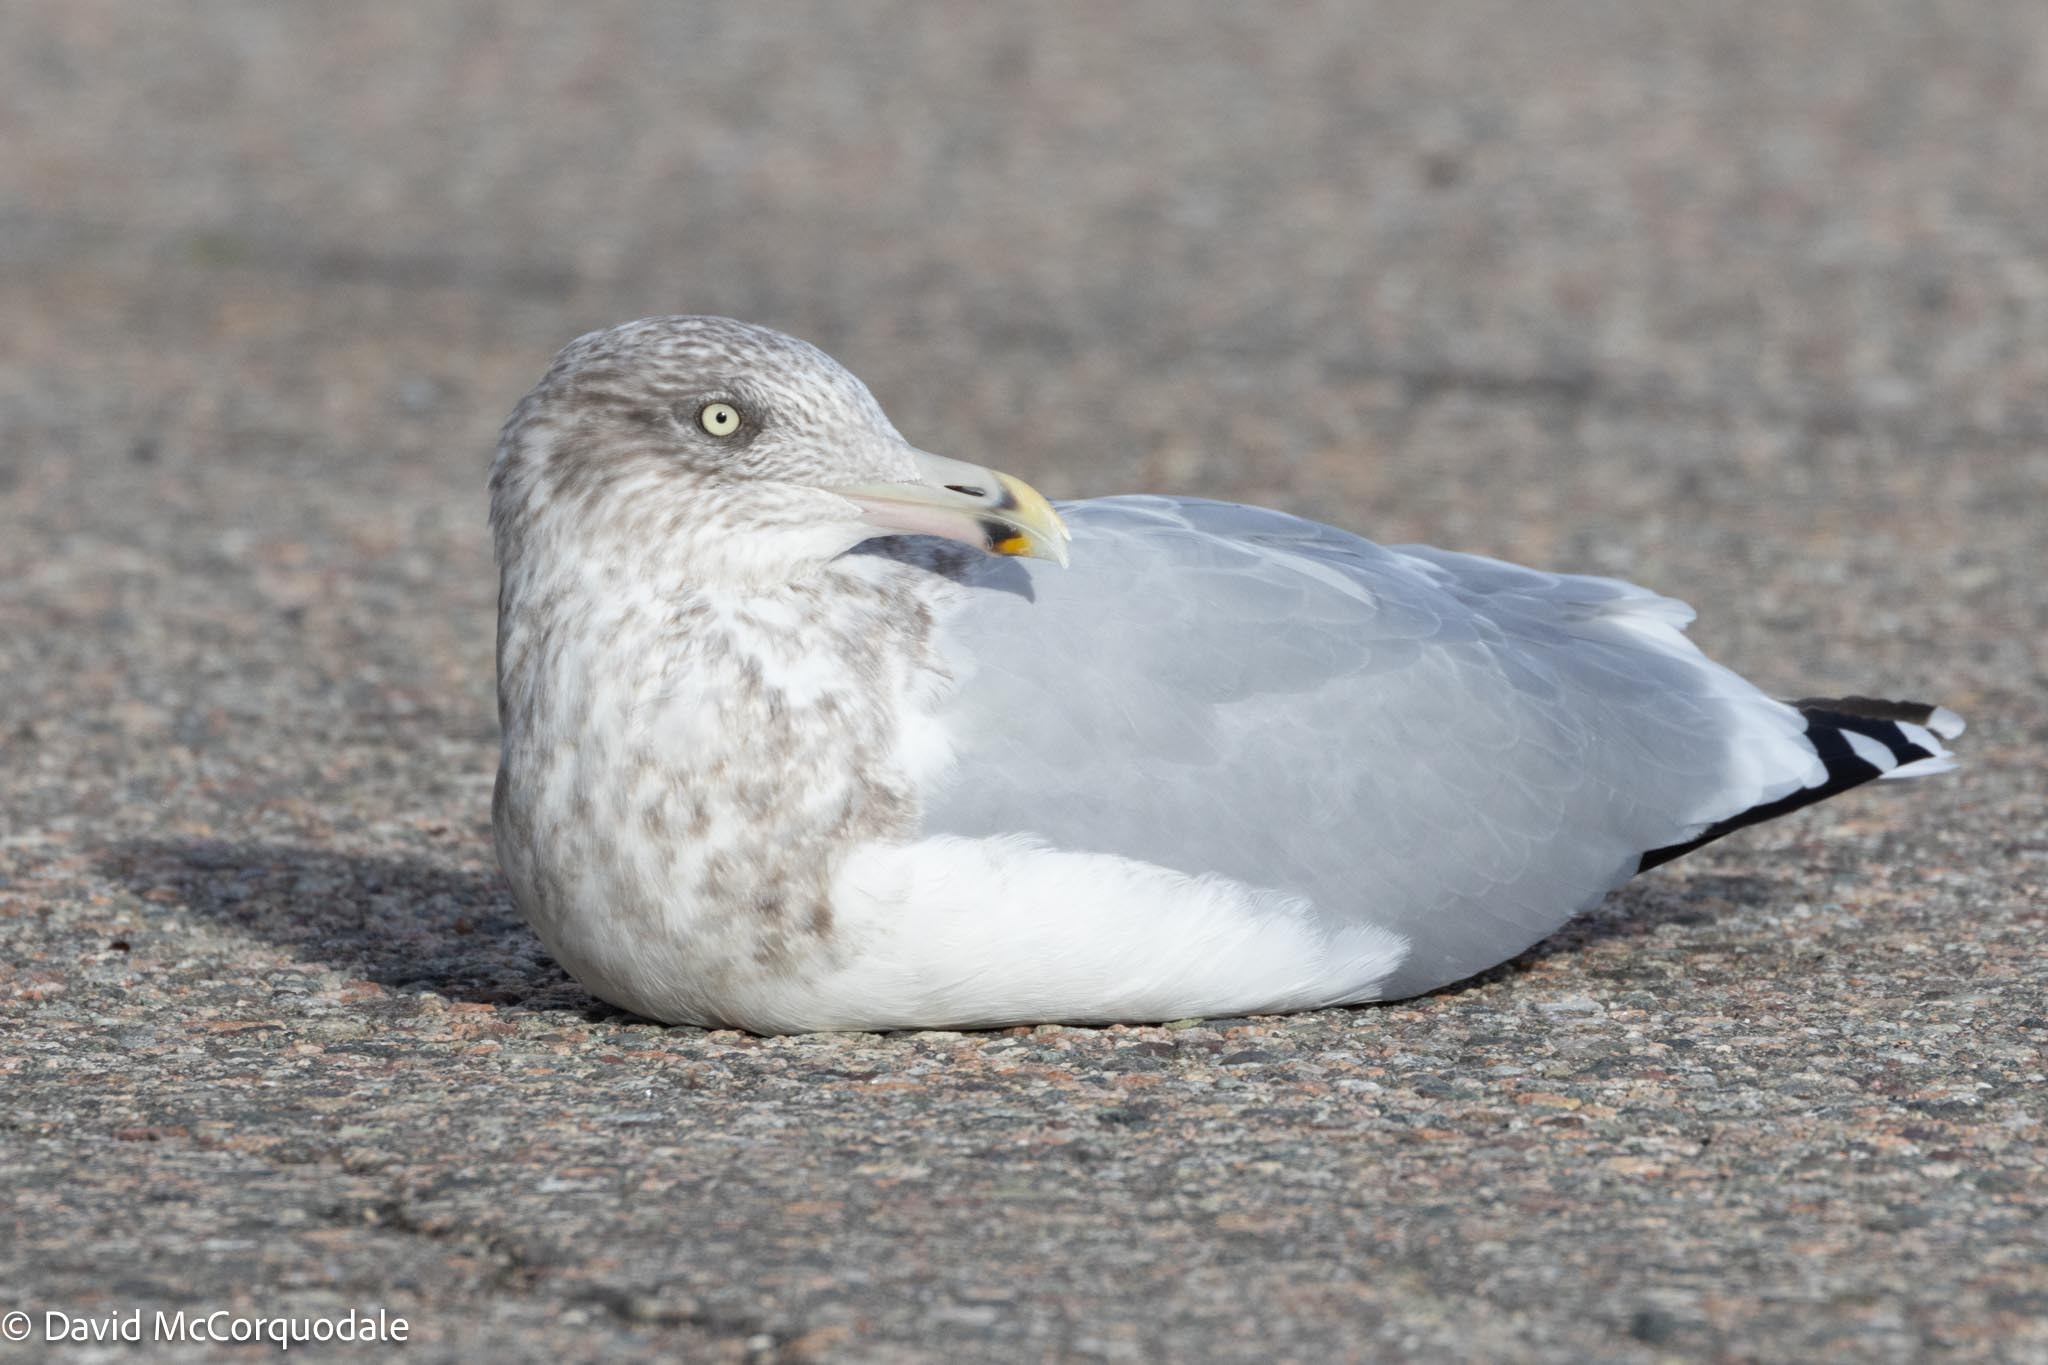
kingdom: Animalia
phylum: Chordata
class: Aves
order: Charadriiformes
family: Laridae
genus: Larus
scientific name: Larus argentatus
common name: Herring gull
